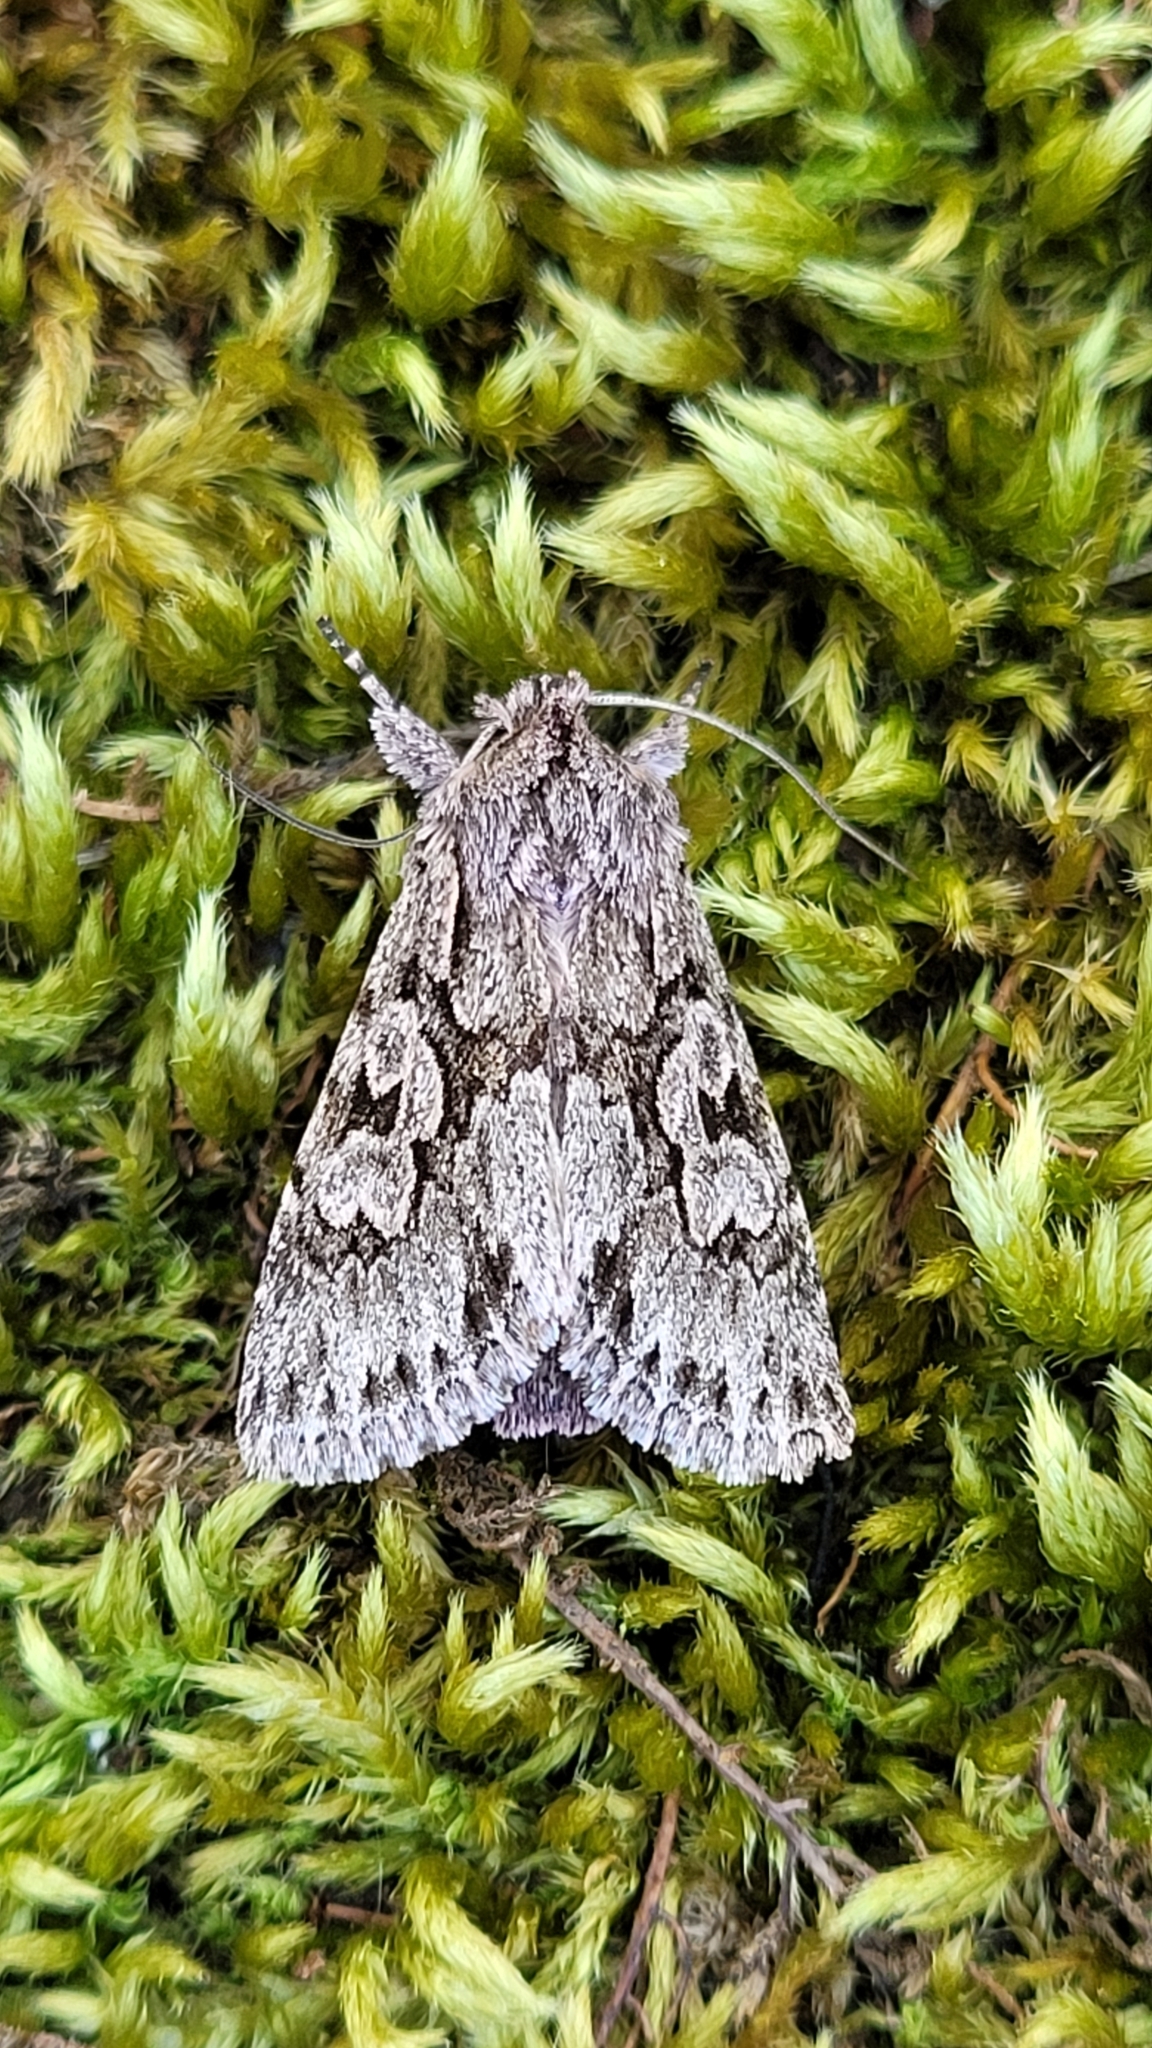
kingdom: Animalia
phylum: Arthropoda
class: Insecta
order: Lepidoptera
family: Noctuidae
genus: Xylocampa
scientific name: Xylocampa areola
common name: Early grey
